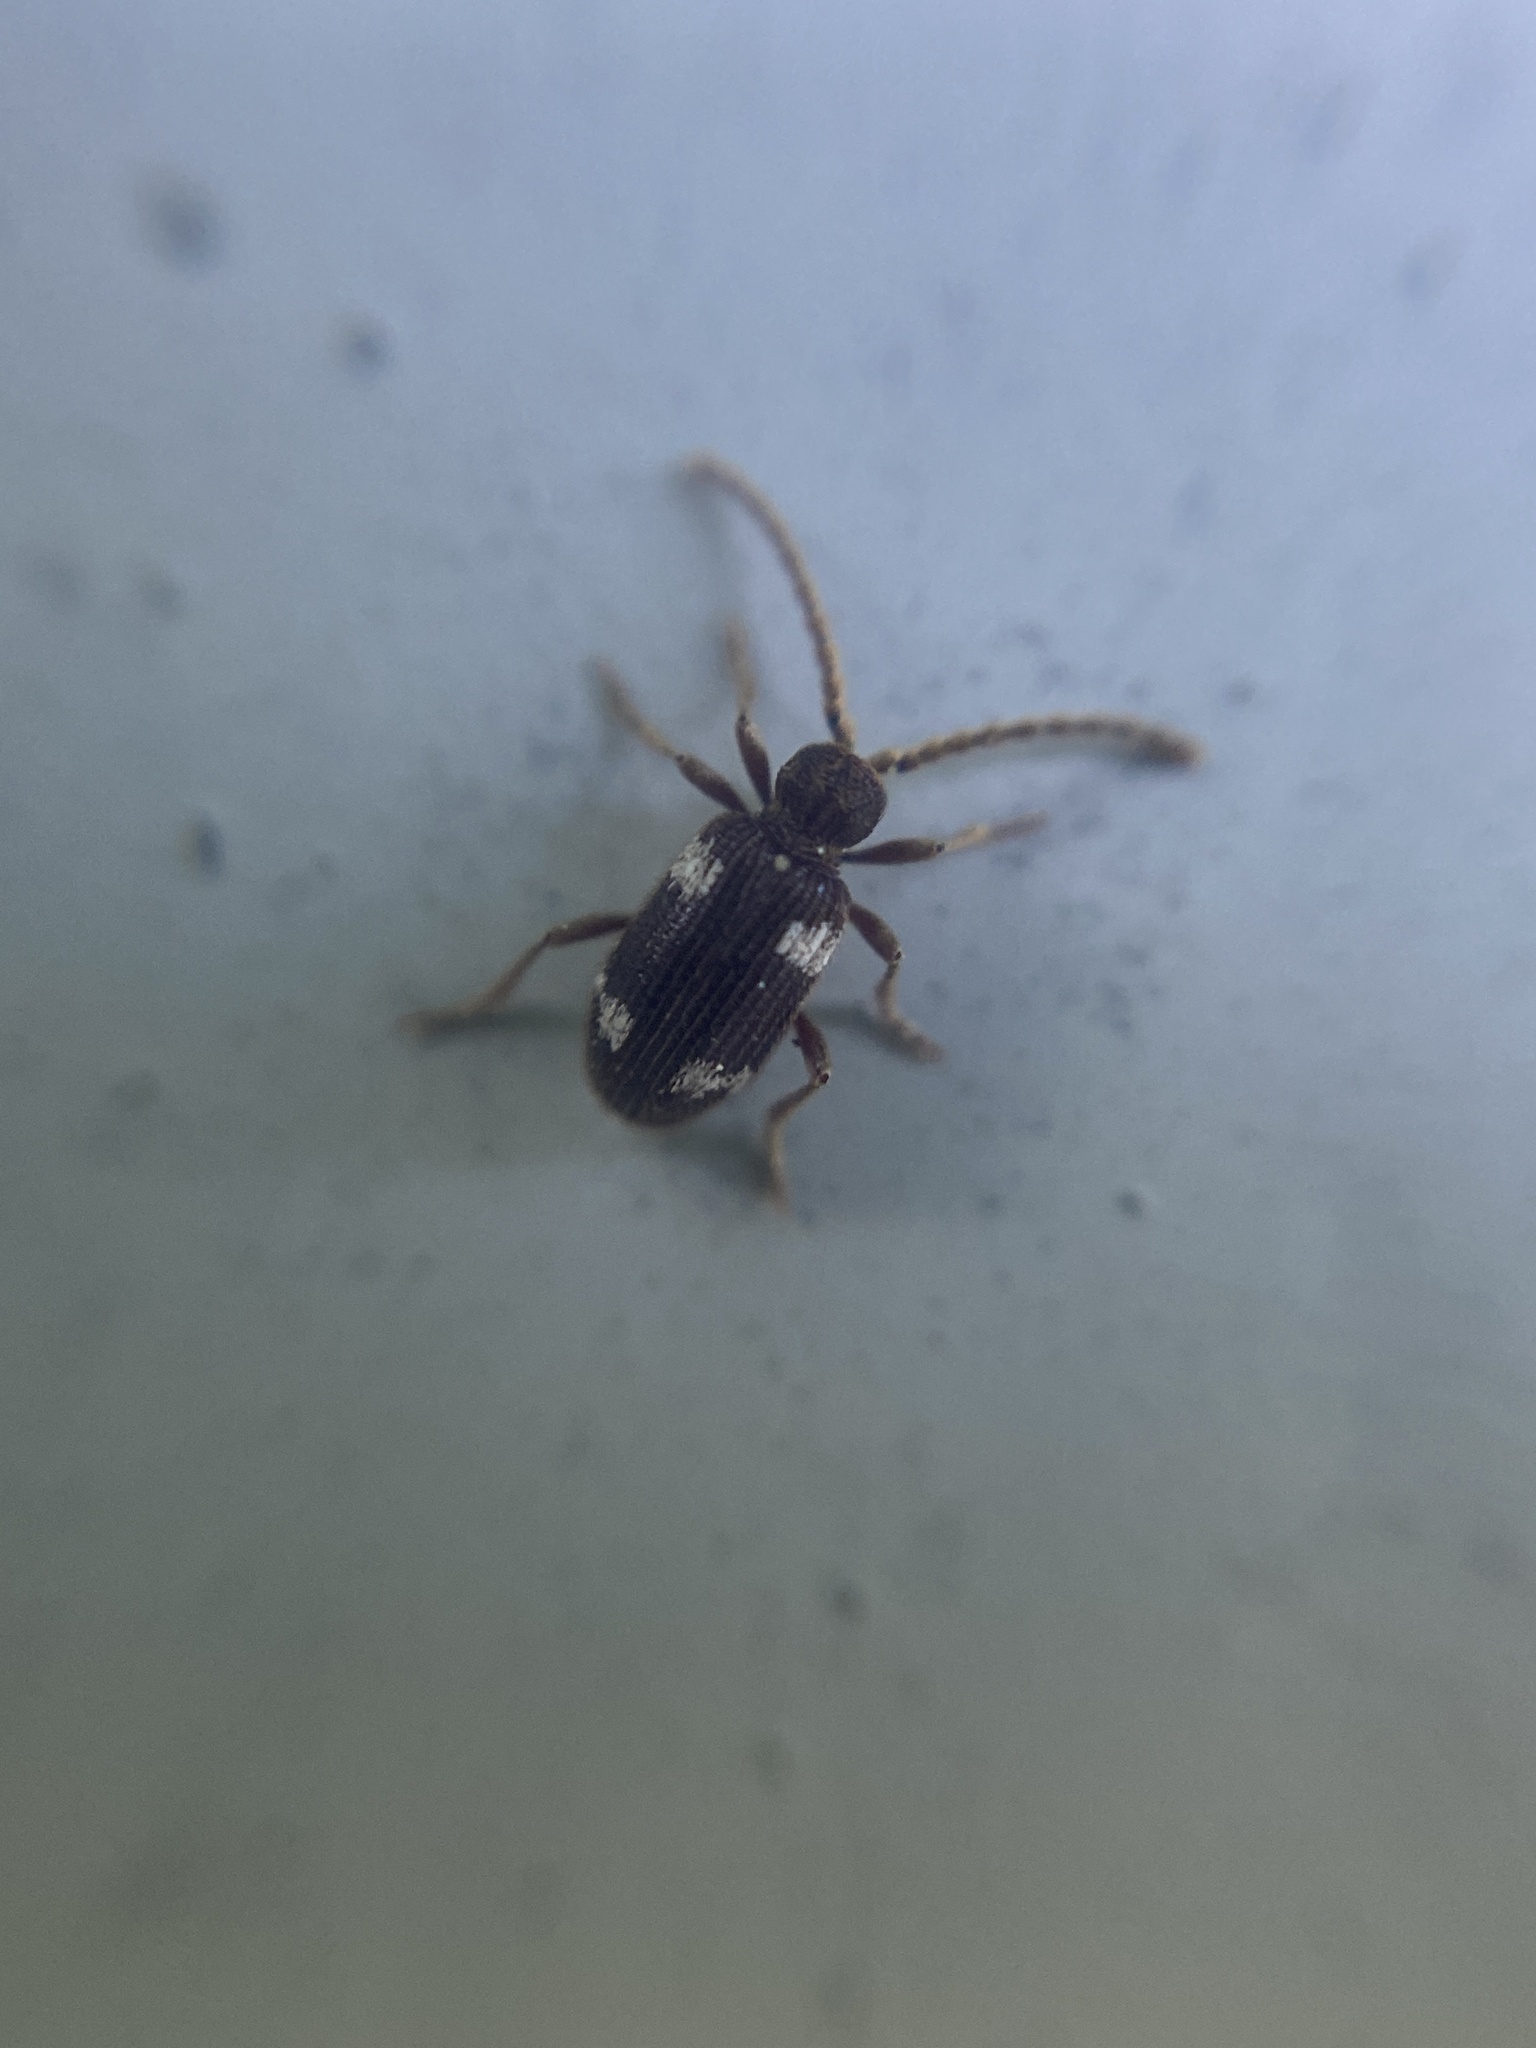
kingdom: Animalia
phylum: Arthropoda
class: Insecta
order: Coleoptera
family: Ptinidae
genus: Ptinus
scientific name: Ptinus sexpunctatus
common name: Six-spotted spider beetle
